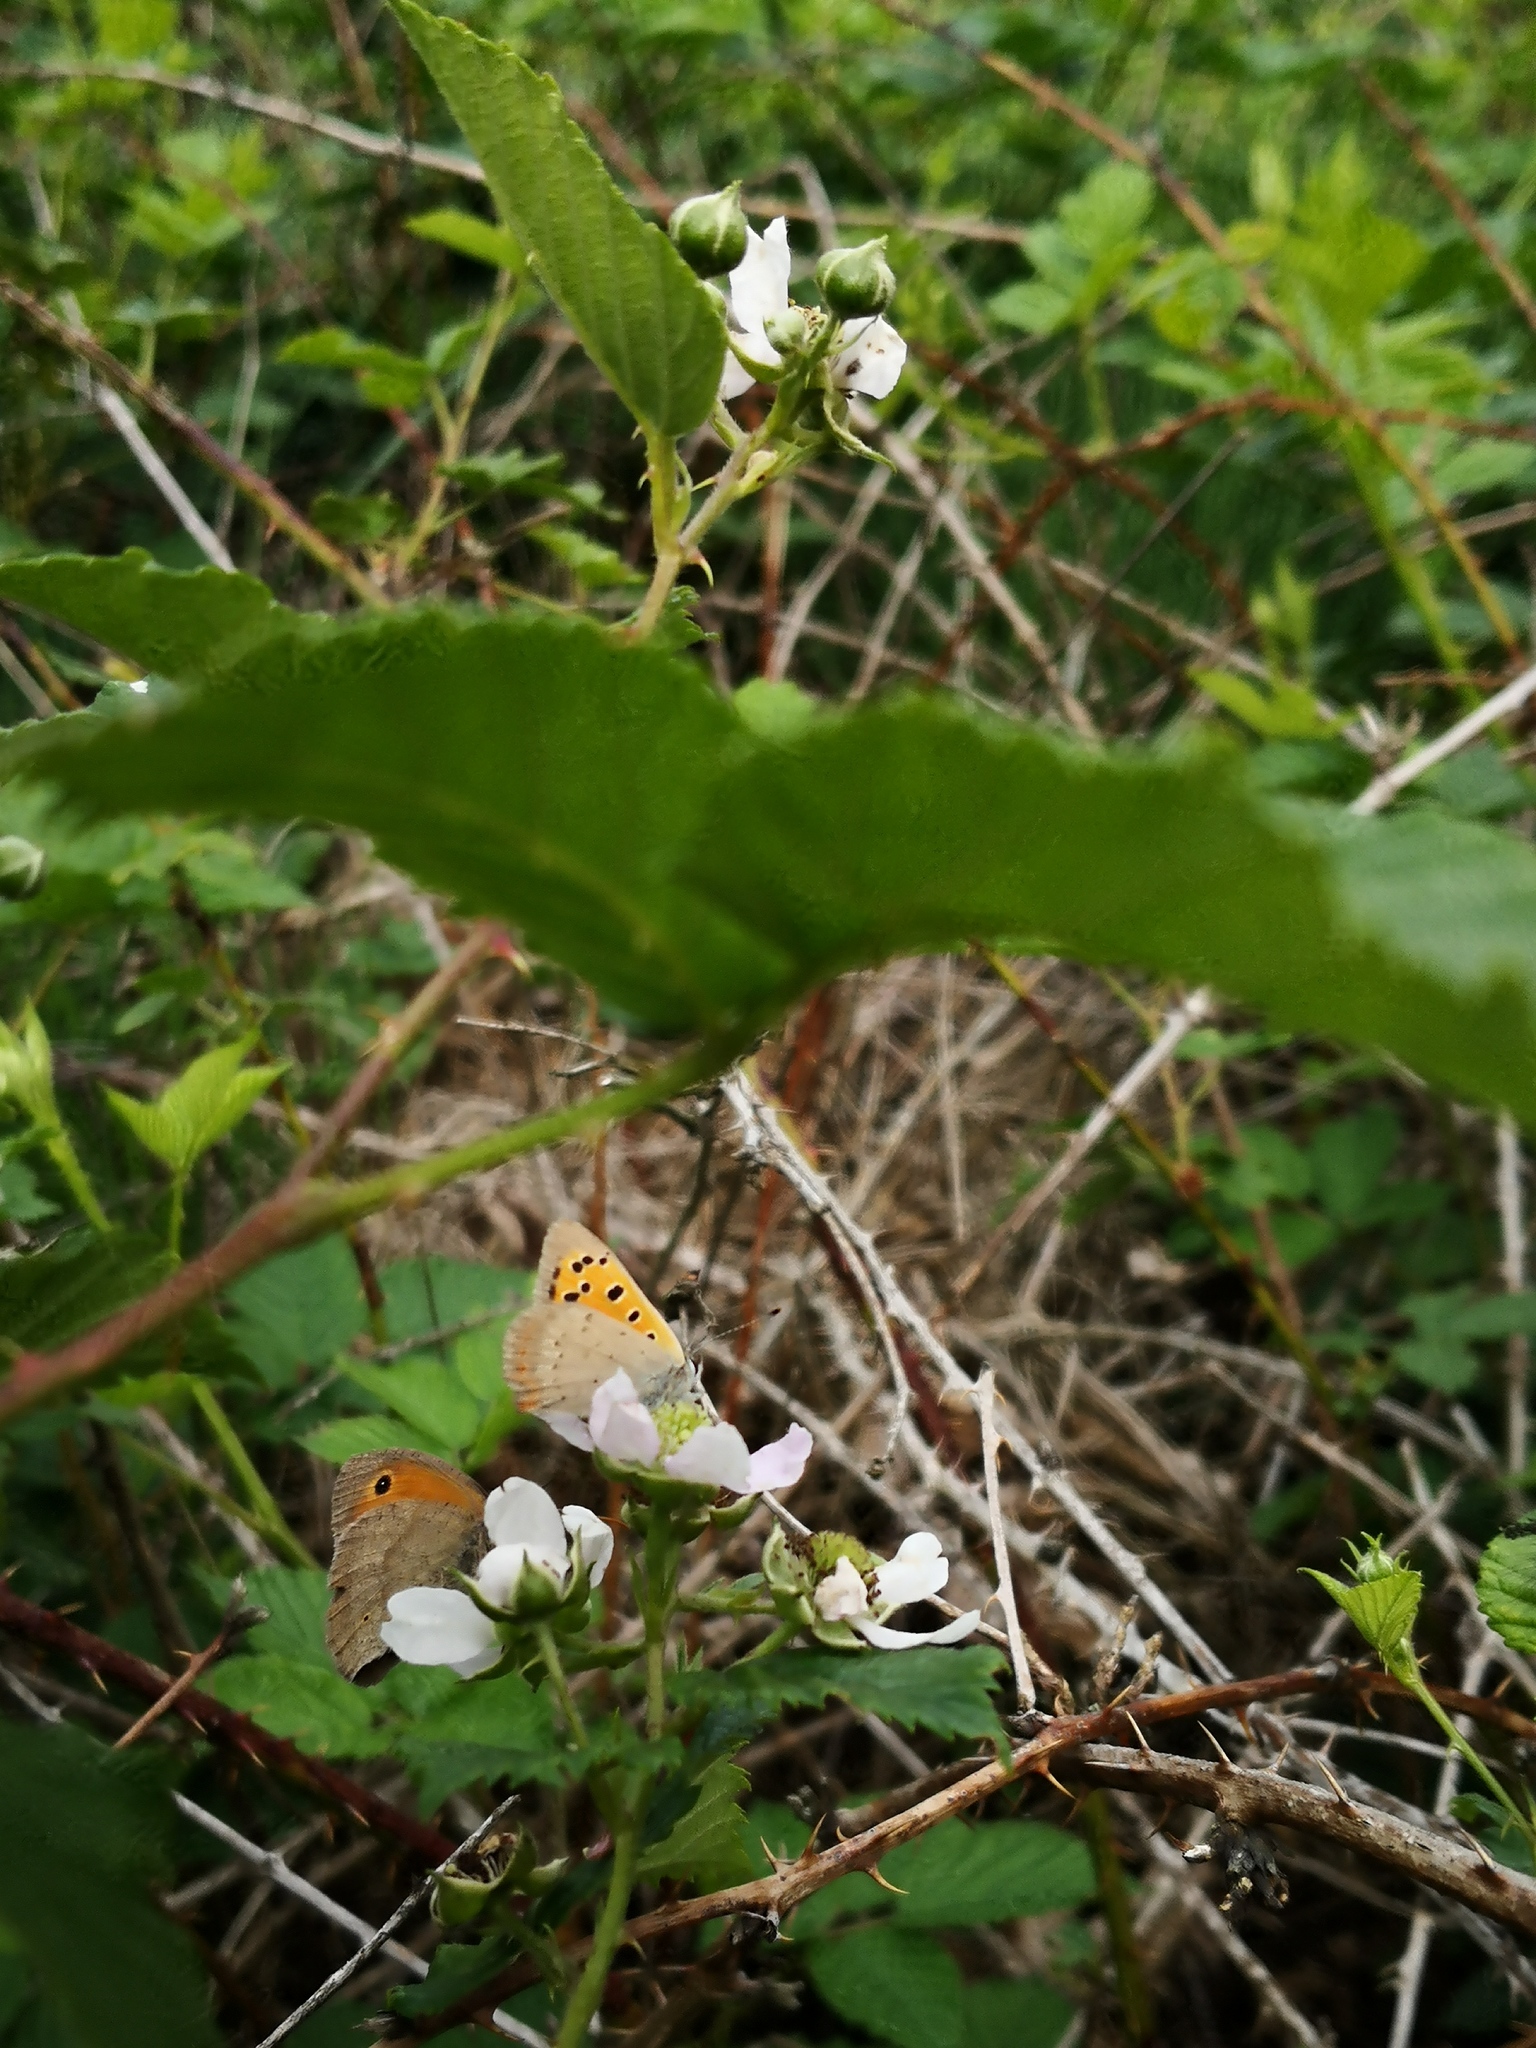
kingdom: Animalia
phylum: Arthropoda
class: Insecta
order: Lepidoptera
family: Lycaenidae
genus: Lycaena
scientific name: Lycaena phlaeas
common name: Small copper
